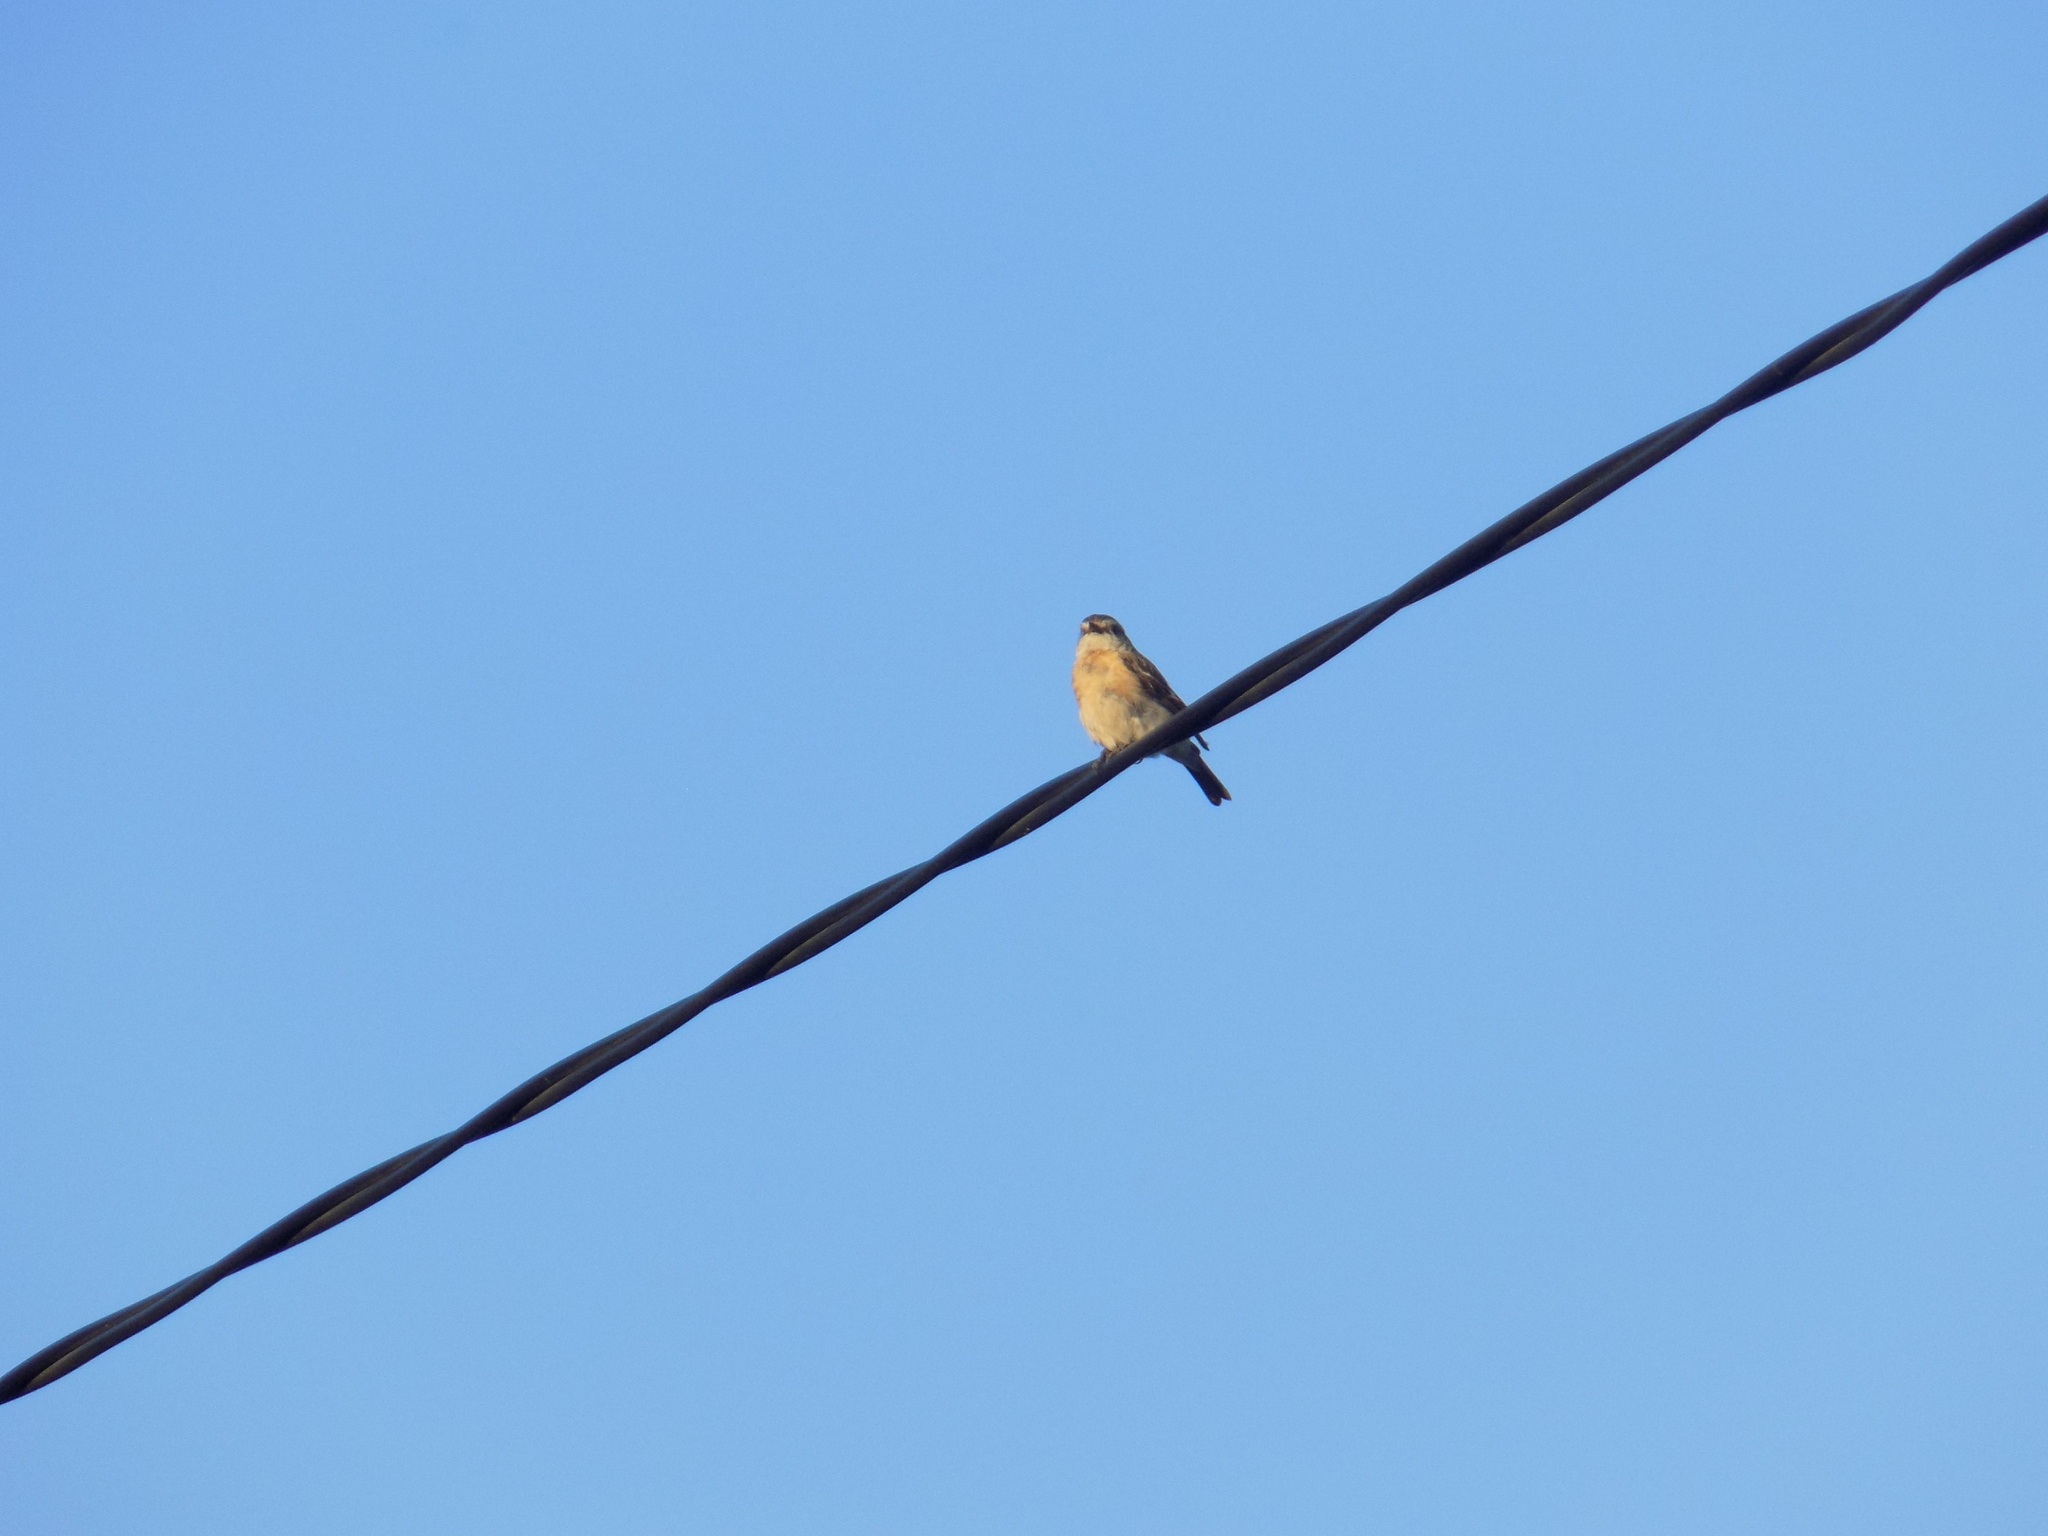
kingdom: Animalia
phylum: Chordata
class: Aves
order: Passeriformes
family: Muscicapidae
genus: Saxicola
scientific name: Saxicola maurus
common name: Siberian stonechat
